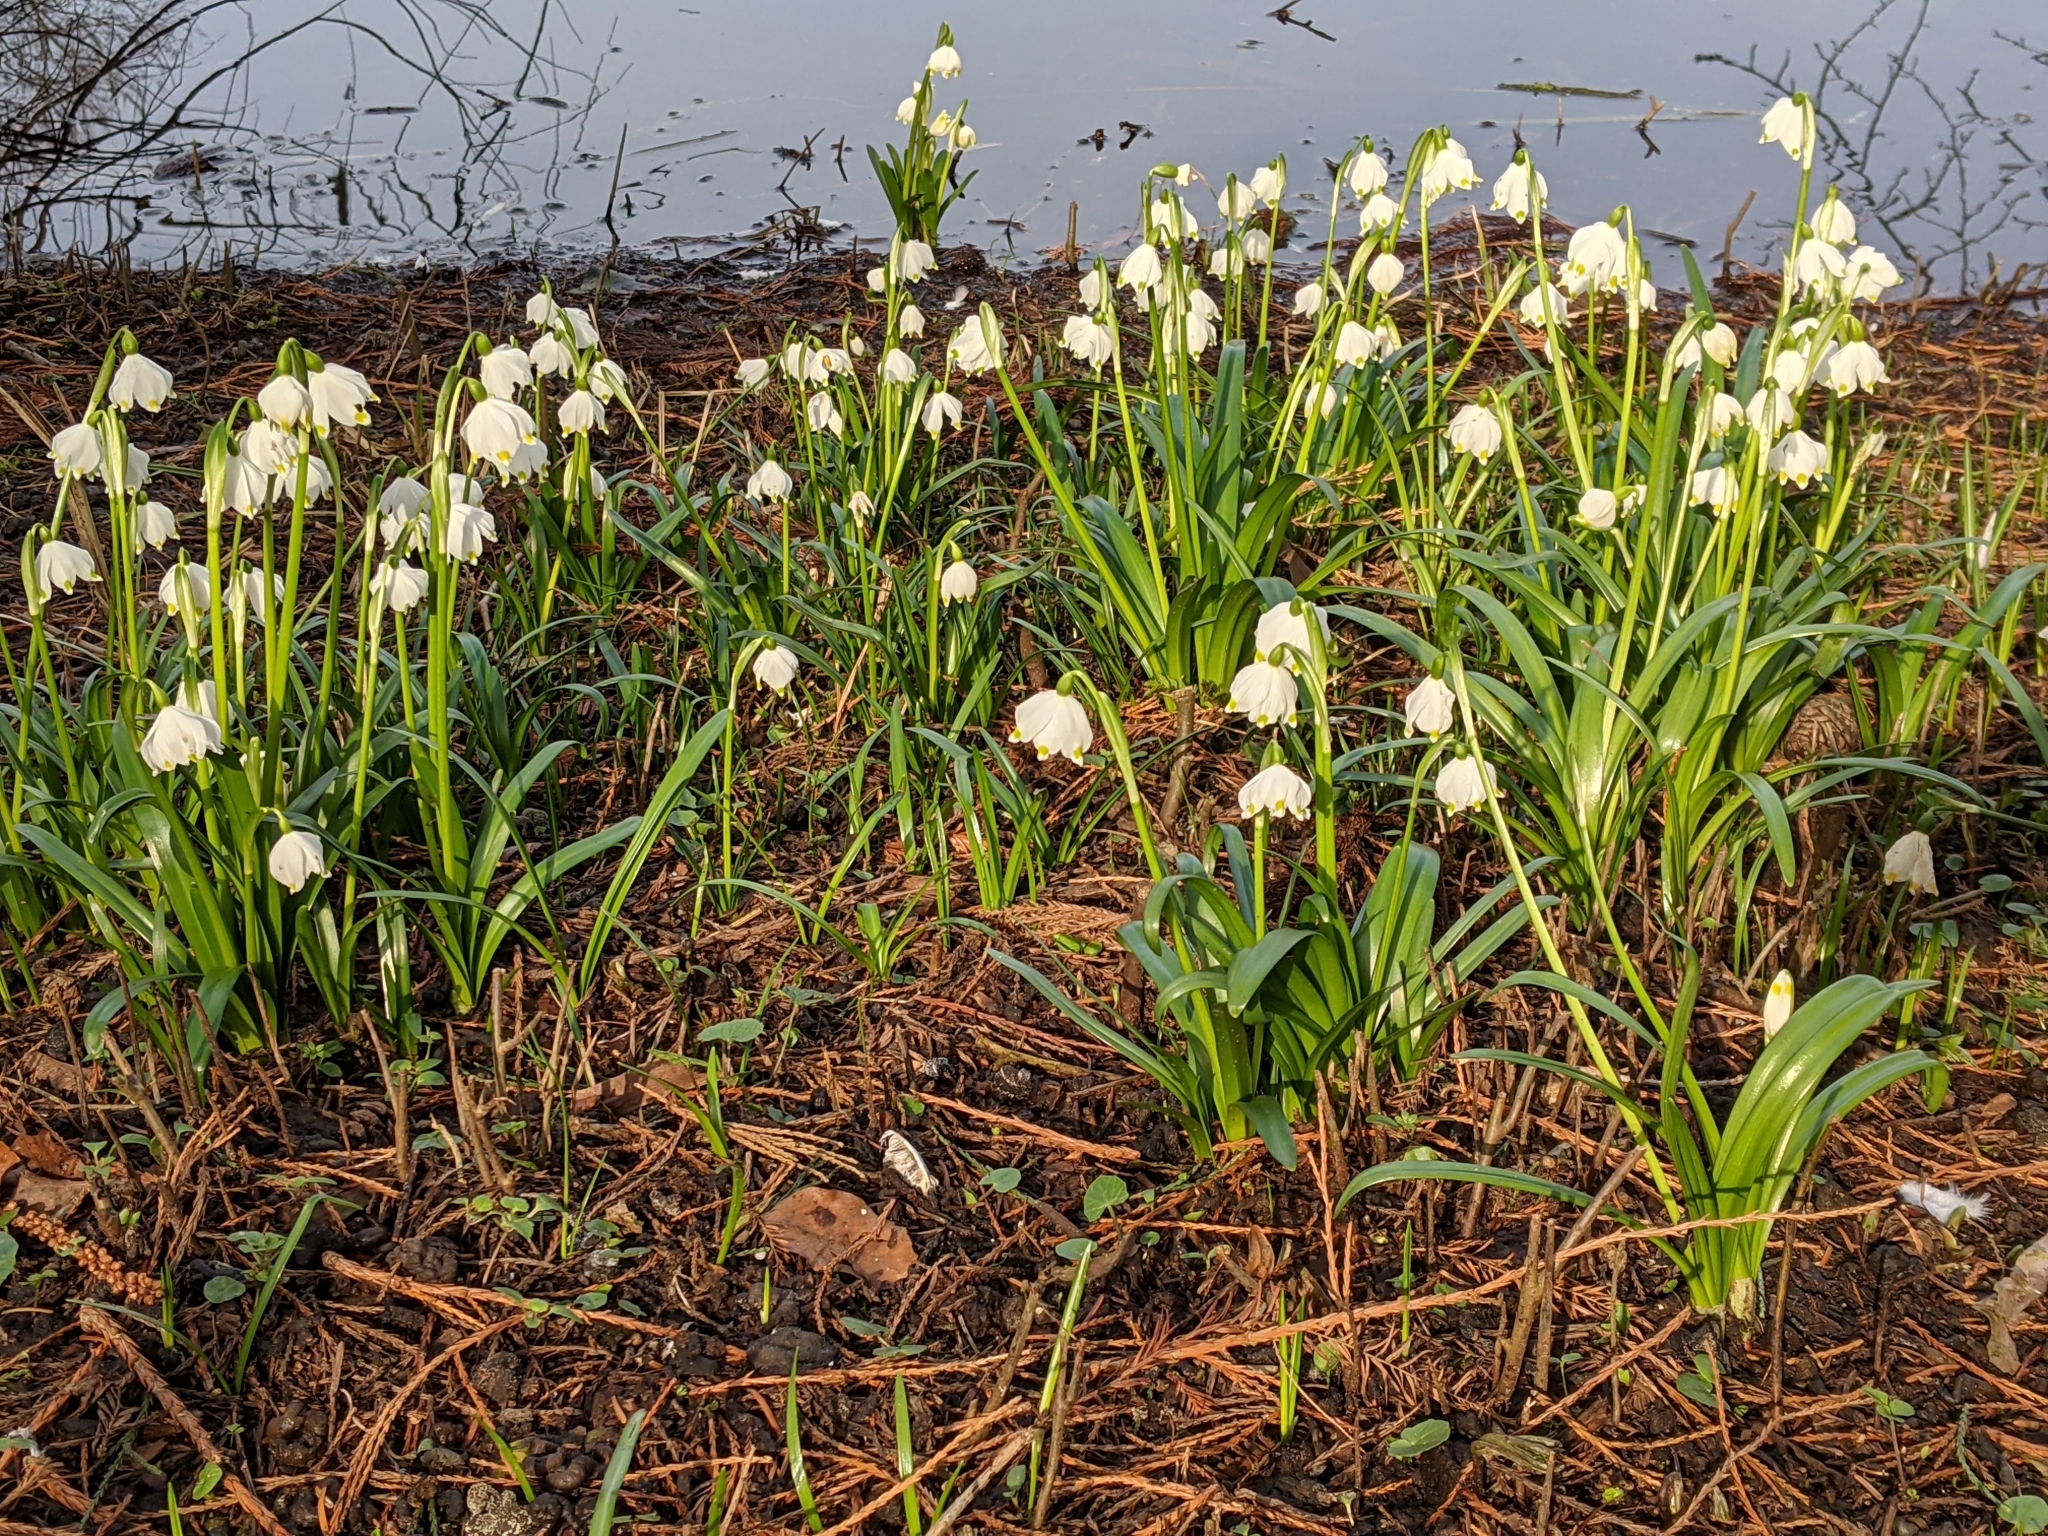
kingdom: Plantae
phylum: Tracheophyta
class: Liliopsida
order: Asparagales
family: Amaryllidaceae
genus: Leucojum
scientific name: Leucojum vernum
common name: Spring snowflake
